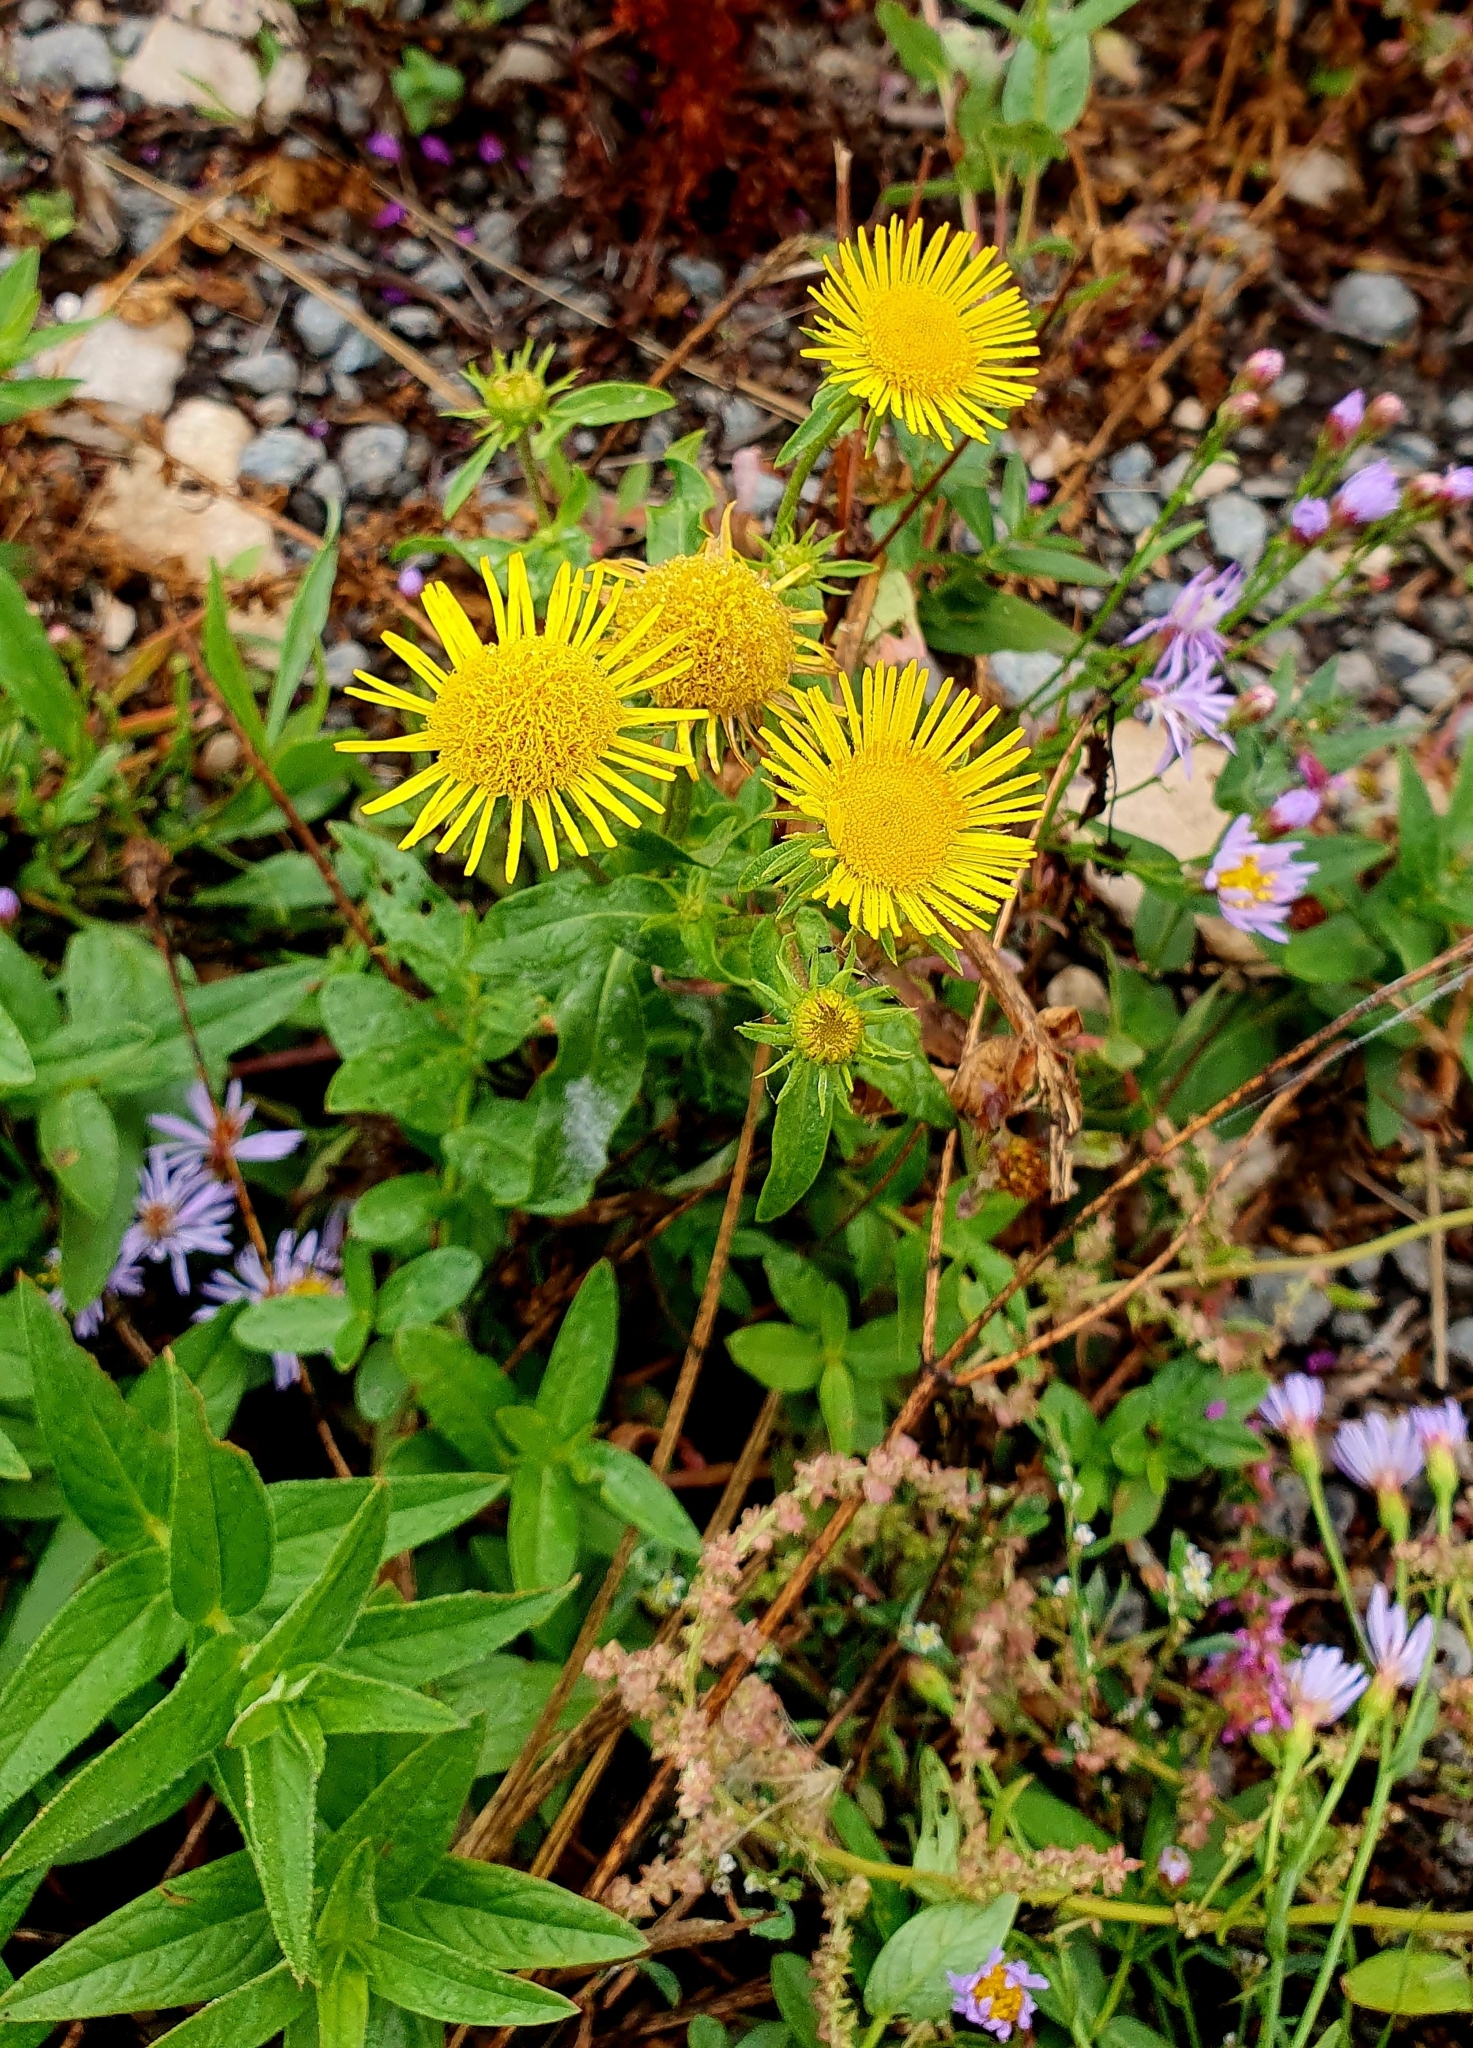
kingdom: Plantae
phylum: Tracheophyta
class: Magnoliopsida
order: Asterales
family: Asteraceae
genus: Pentanema
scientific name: Pentanema britannicum
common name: British elecampane
